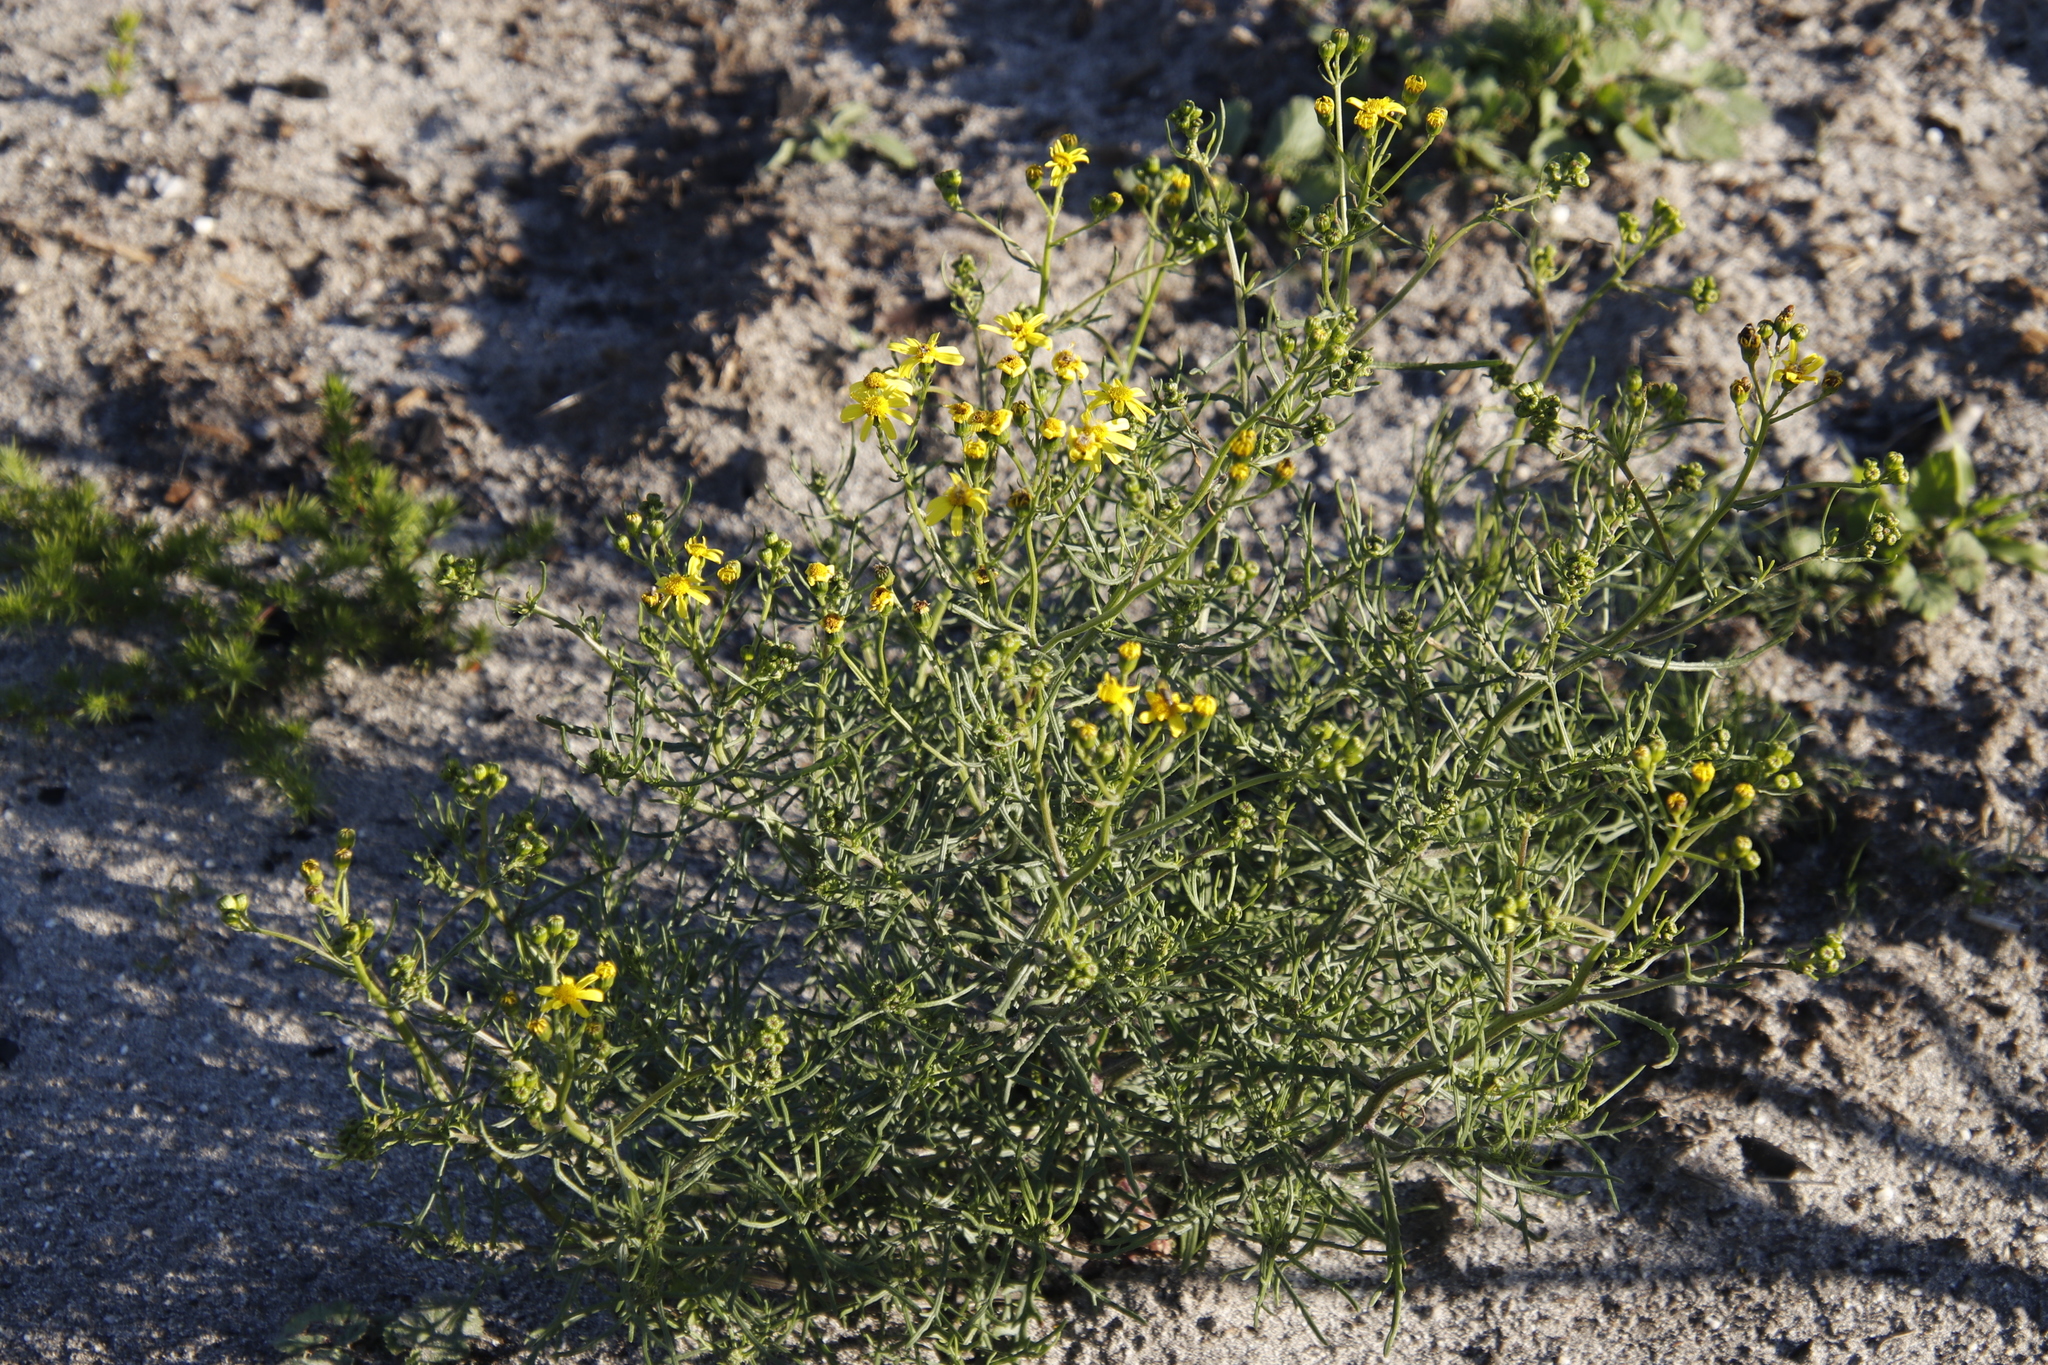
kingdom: Plantae
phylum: Tracheophyta
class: Magnoliopsida
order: Asterales
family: Asteraceae
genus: Senecio
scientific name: Senecio burchellii
